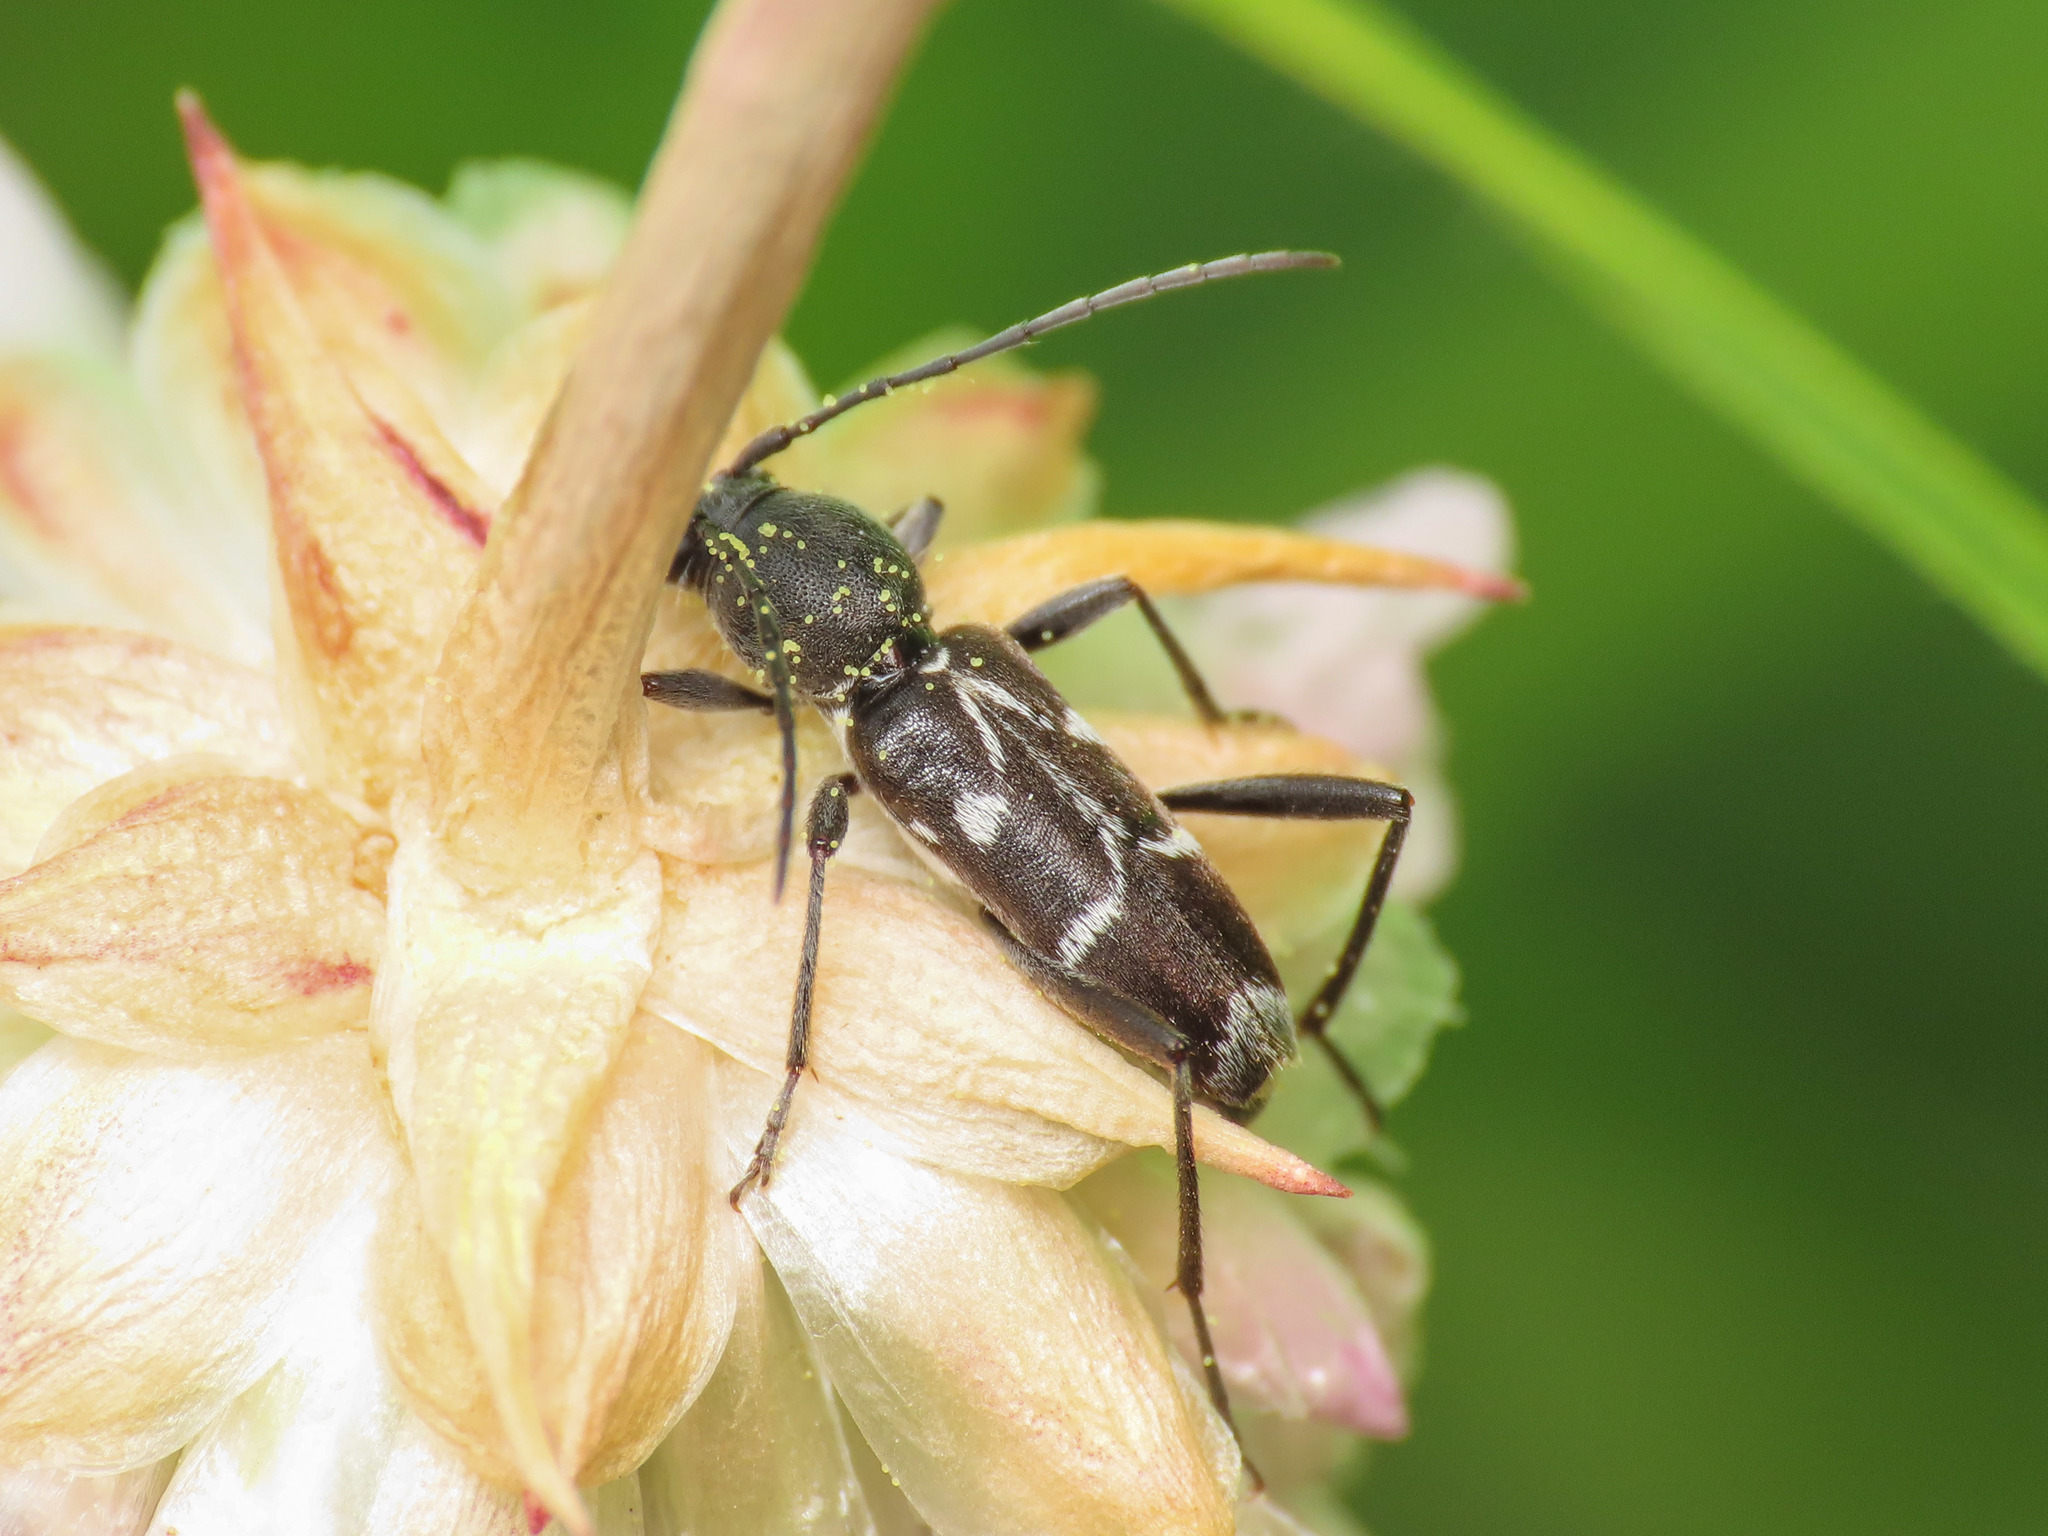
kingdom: Animalia
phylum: Arthropoda
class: Insecta
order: Coleoptera
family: Cerambycidae
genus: Chlorophorus
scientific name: Chlorophorus sartor
